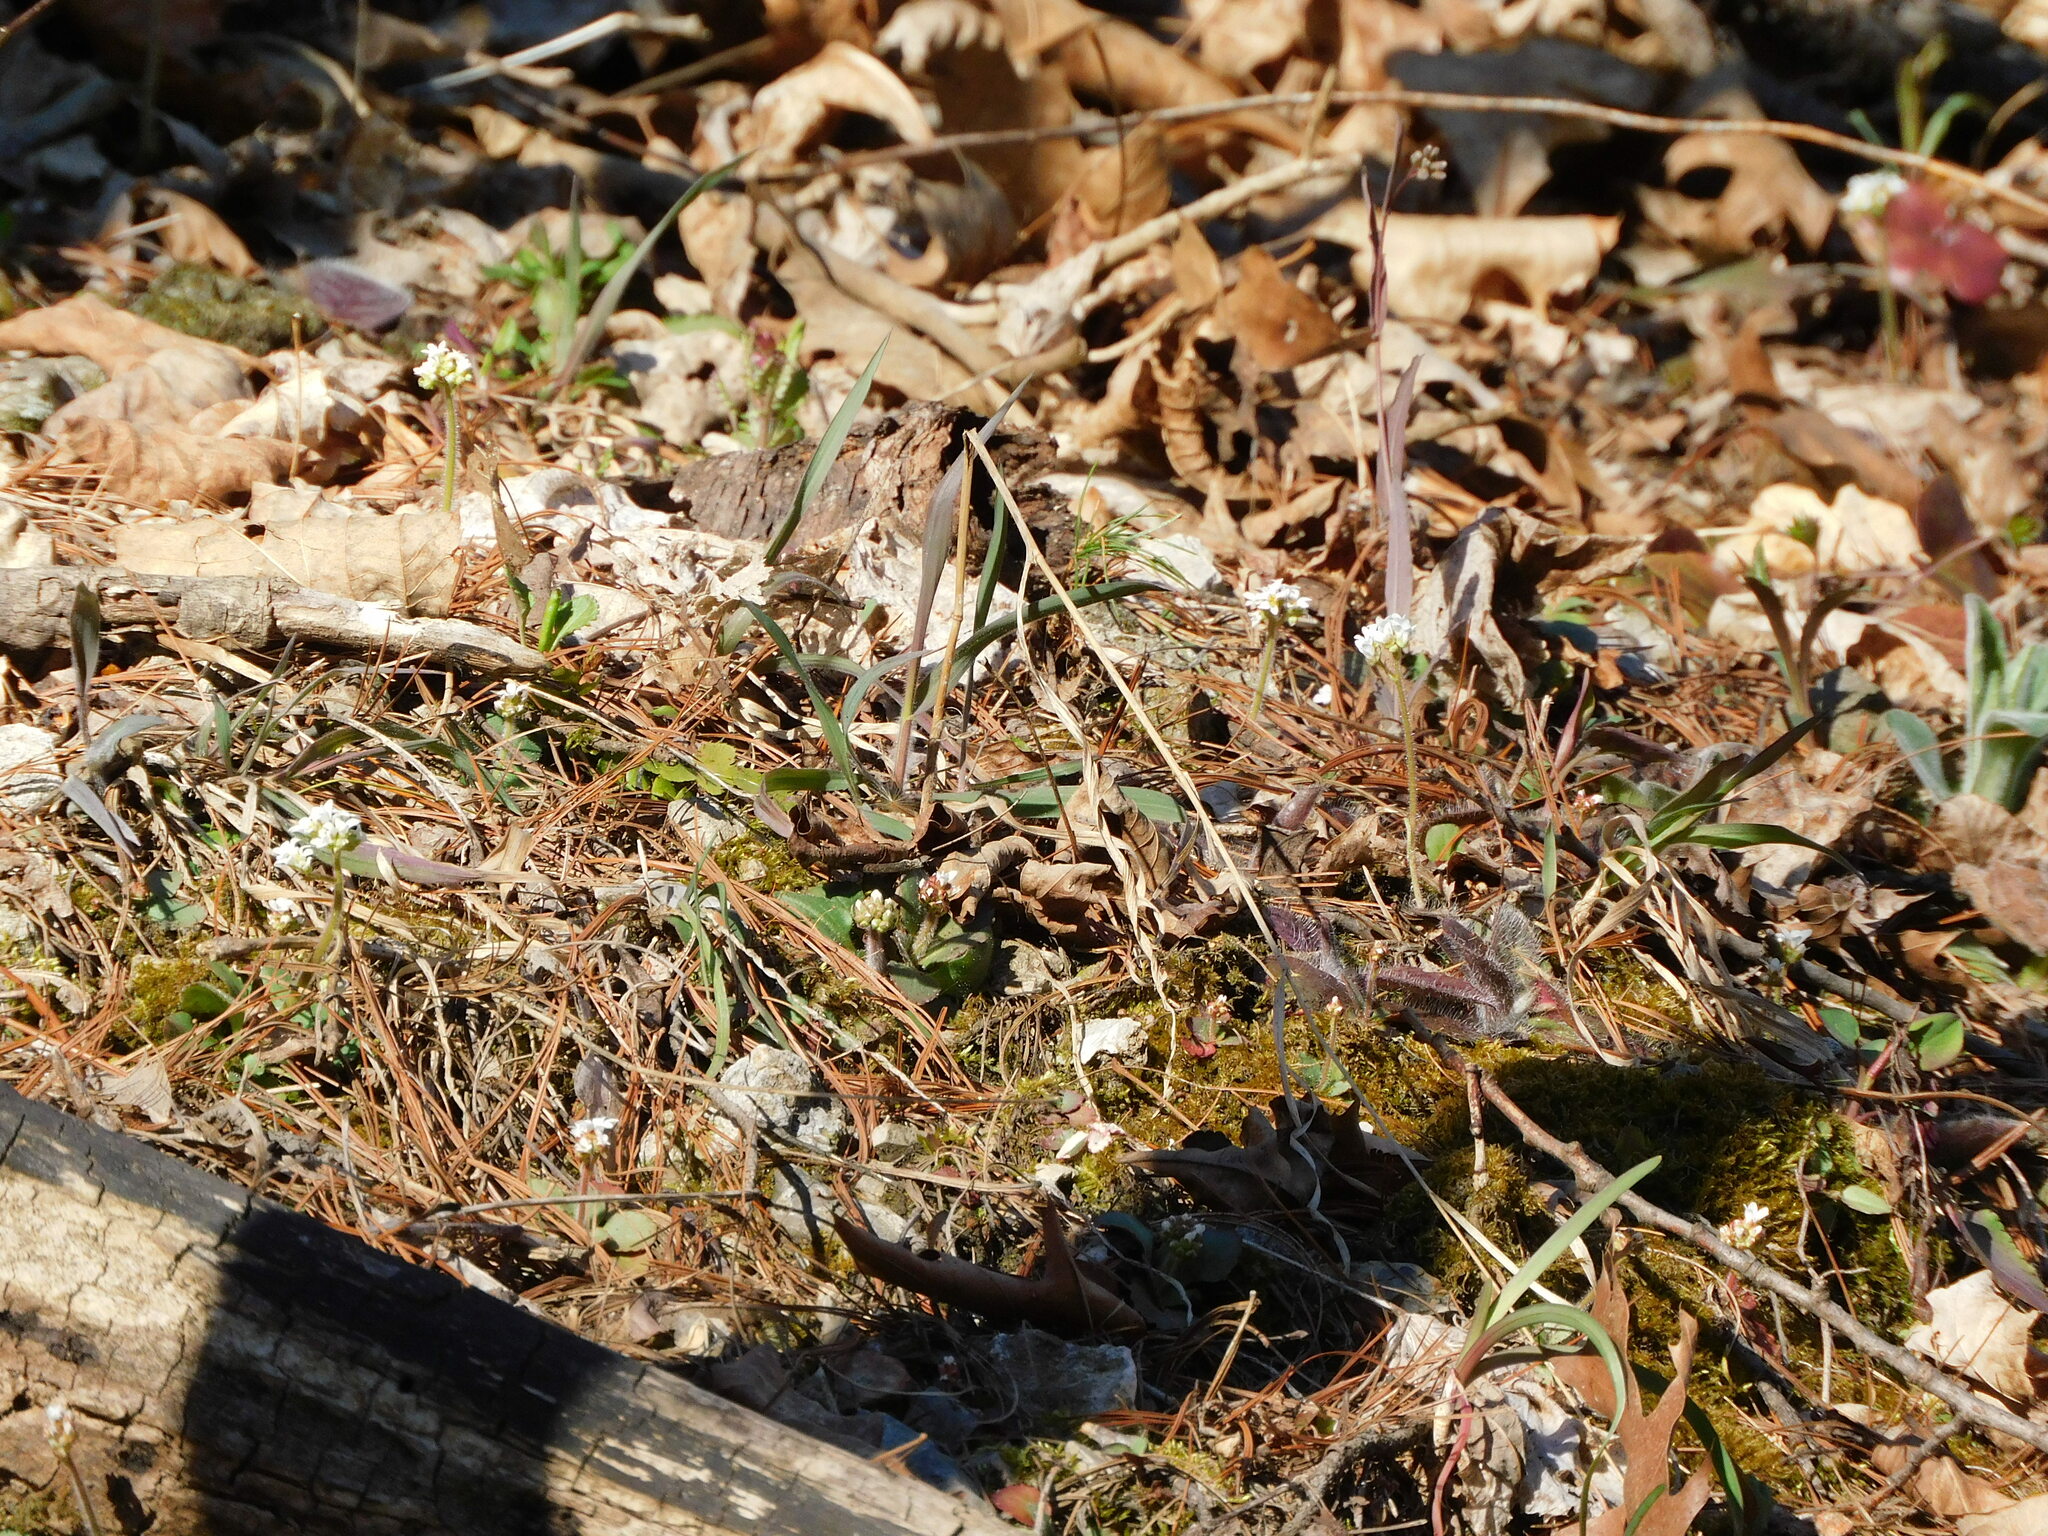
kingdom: Plantae
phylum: Tracheophyta
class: Magnoliopsida
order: Saxifragales
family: Saxifragaceae
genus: Micranthes
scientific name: Micranthes virginiensis
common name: Early saxifrage
